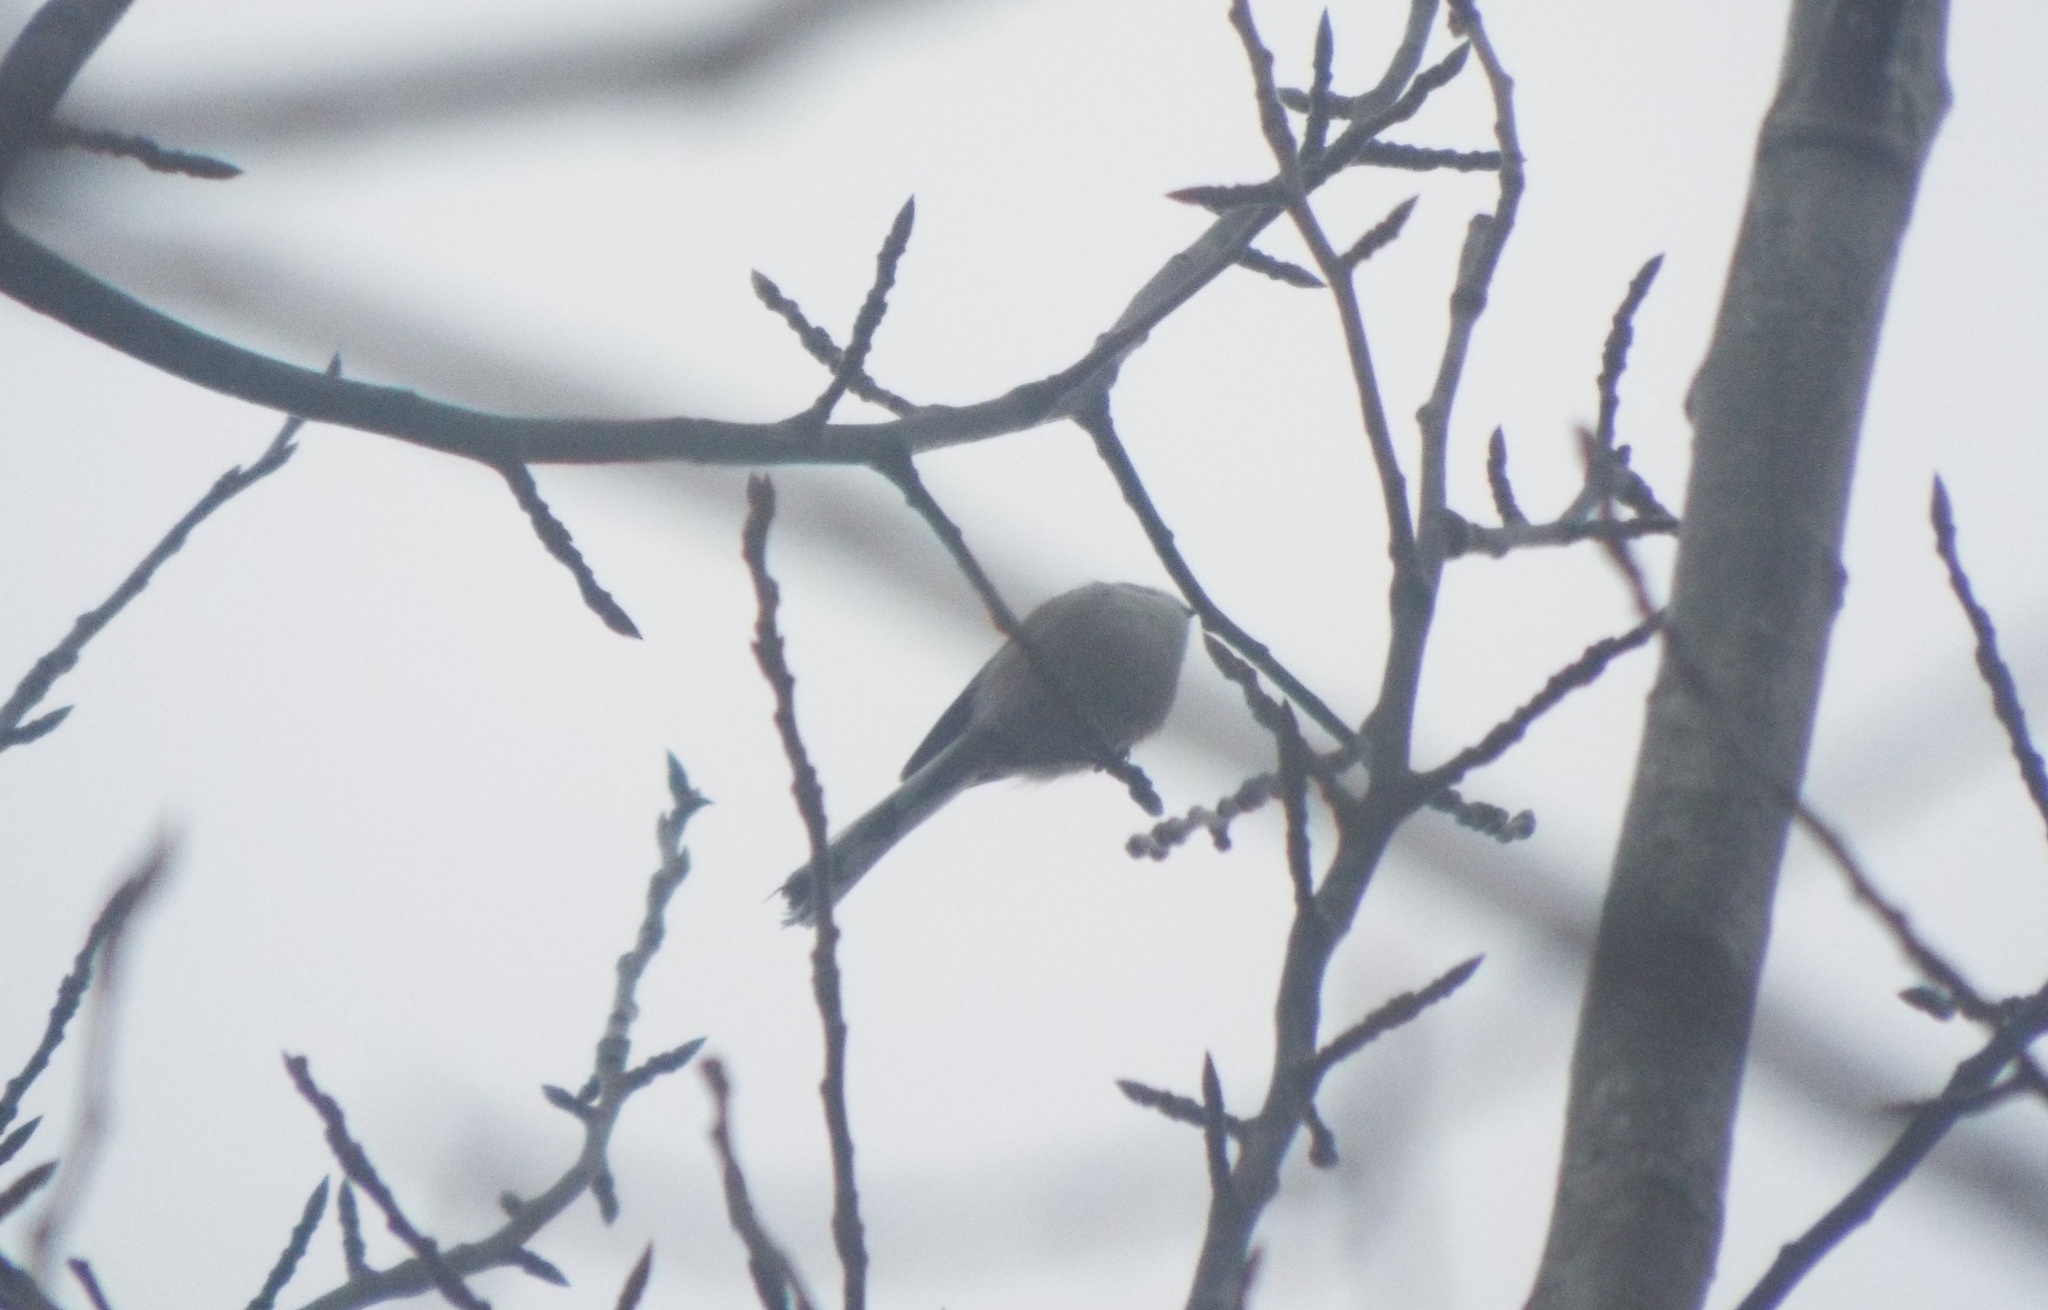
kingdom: Animalia
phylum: Chordata
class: Aves
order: Passeriformes
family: Aegithalidae
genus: Aegithalos
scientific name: Aegithalos caudatus
